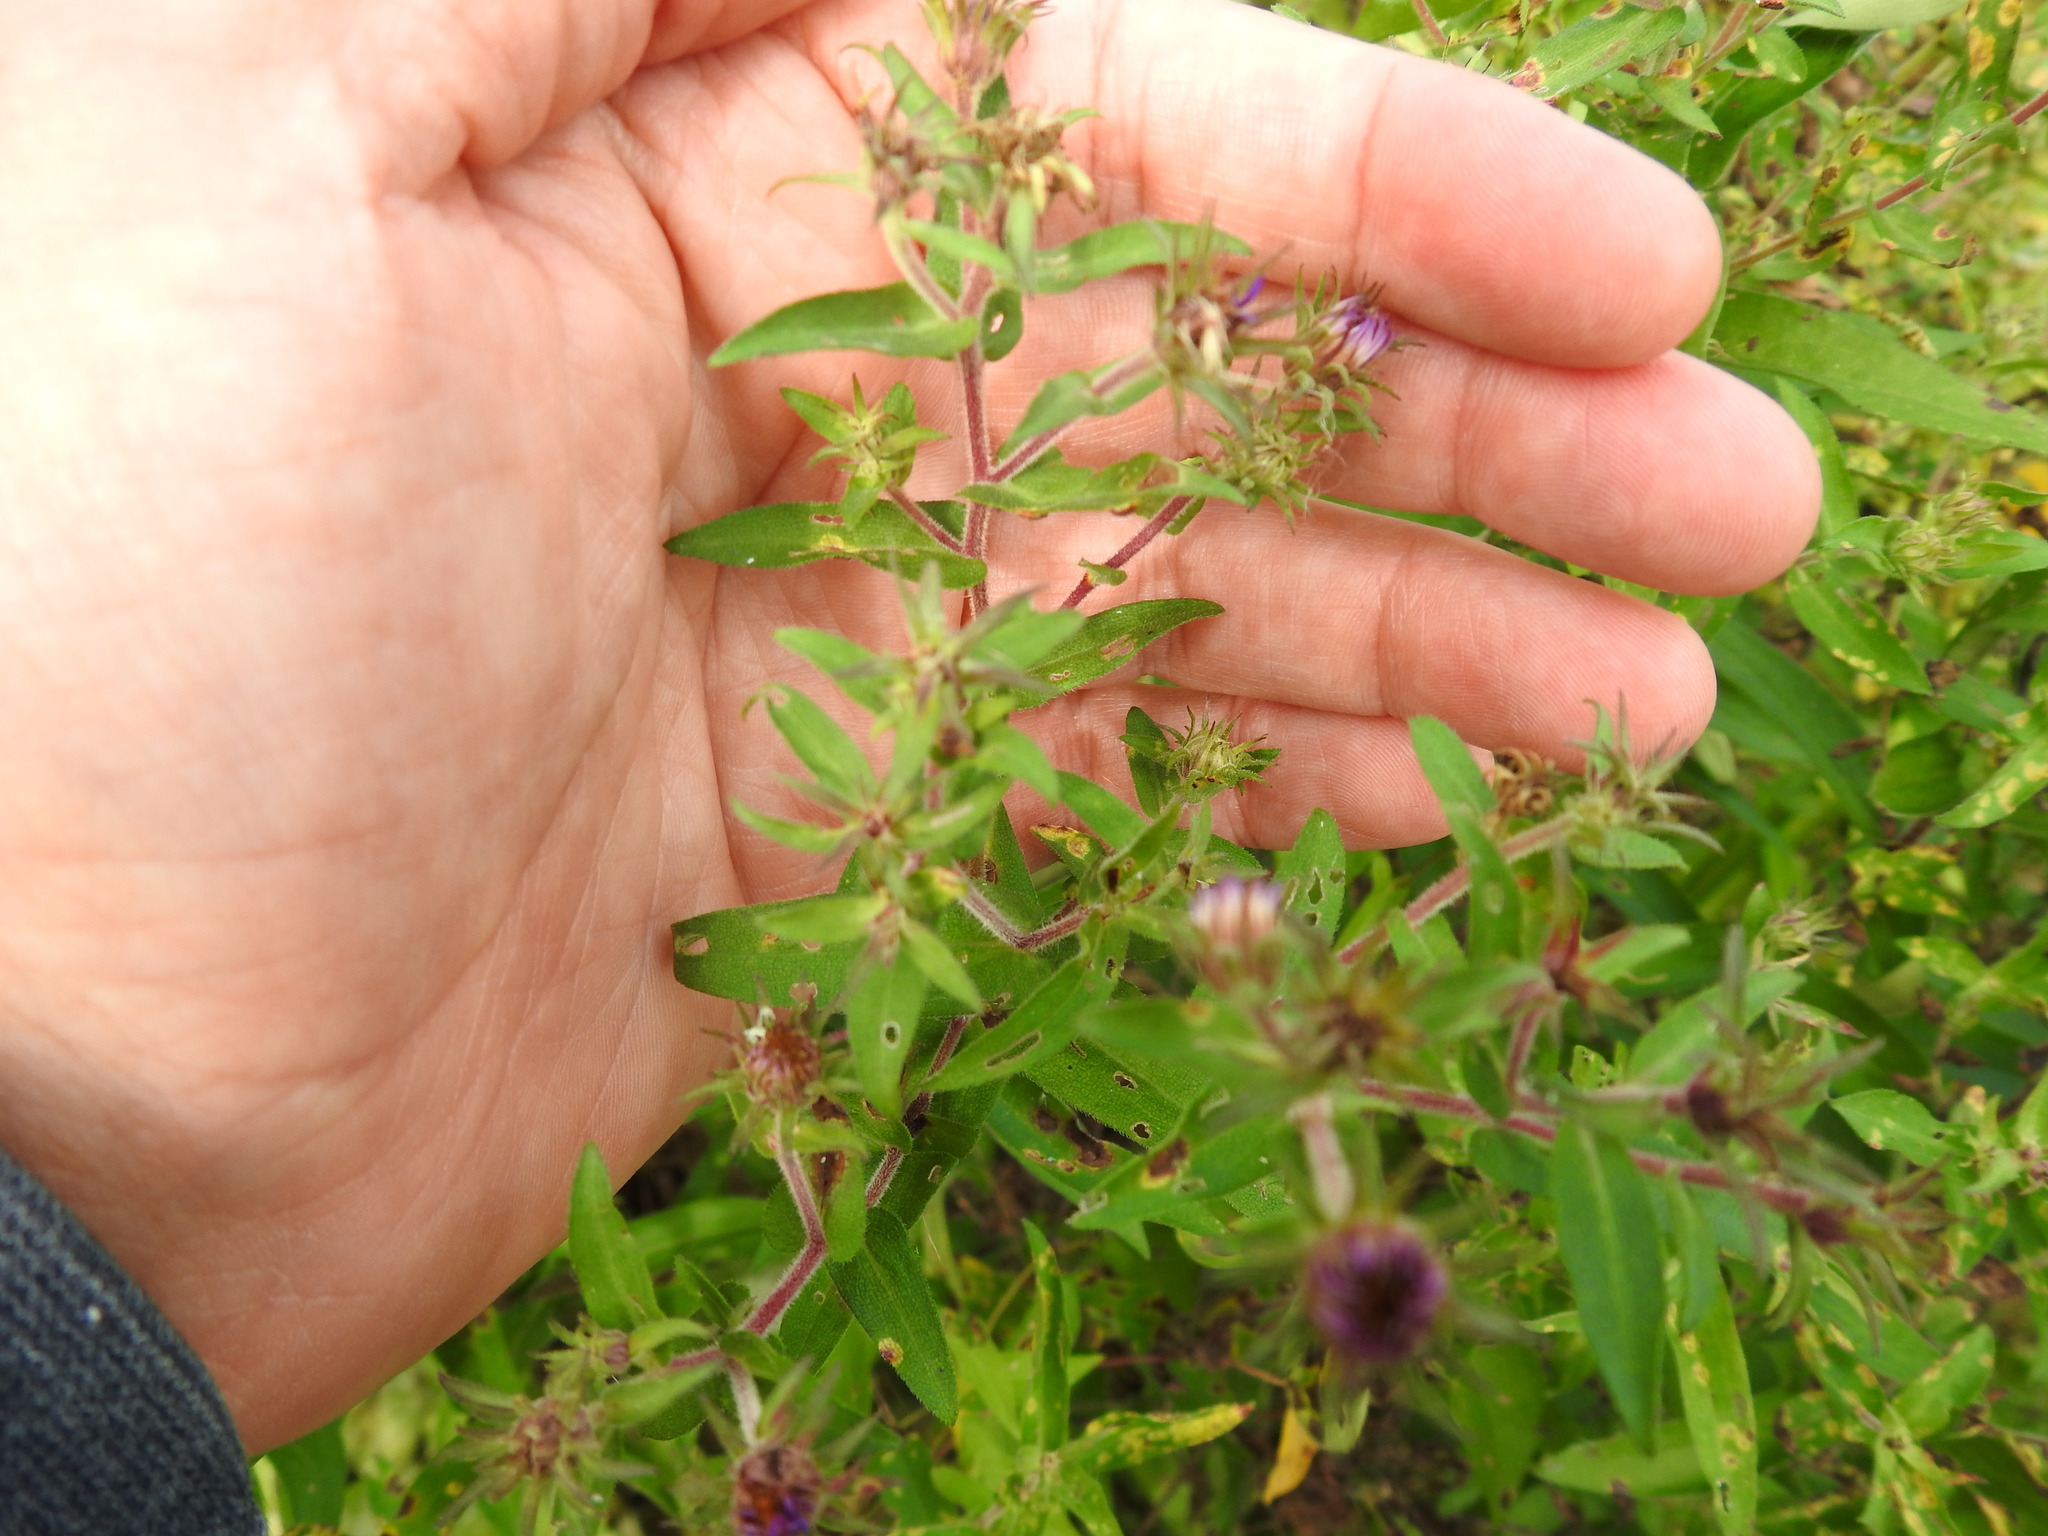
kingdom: Plantae
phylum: Tracheophyta
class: Magnoliopsida
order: Asterales
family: Asteraceae
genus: Symphyotrichum
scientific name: Symphyotrichum novae-angliae
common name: Michaelmas daisy
